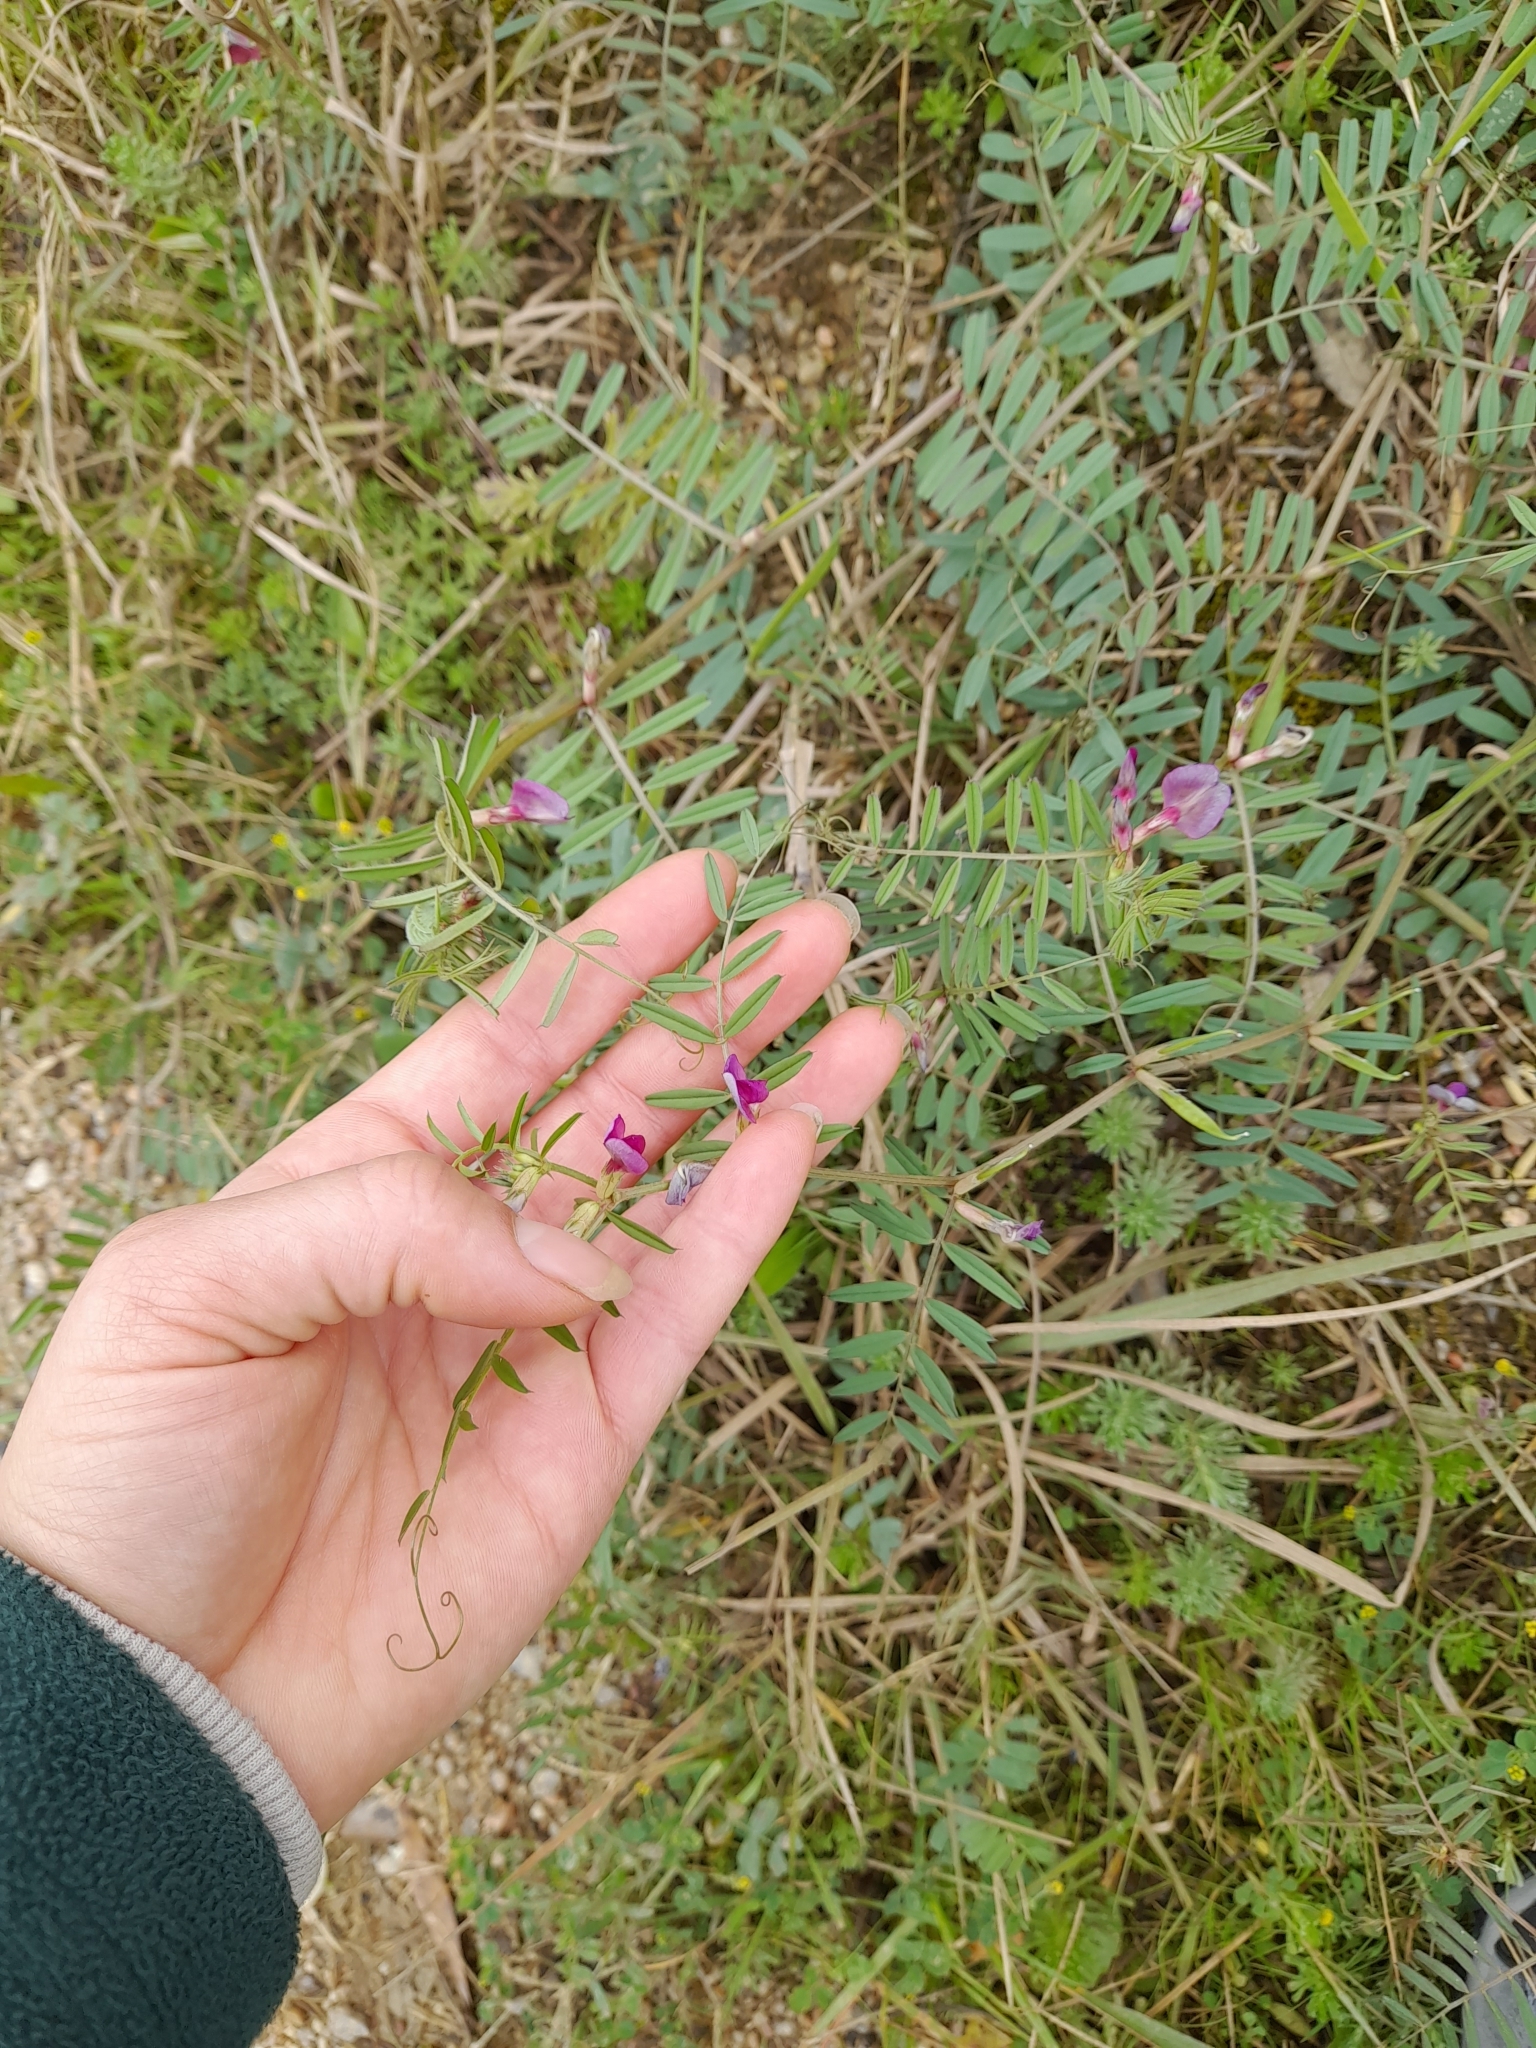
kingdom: Plantae
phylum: Tracheophyta
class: Magnoliopsida
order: Fabales
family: Fabaceae
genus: Vicia
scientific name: Vicia sativa
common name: Garden vetch
